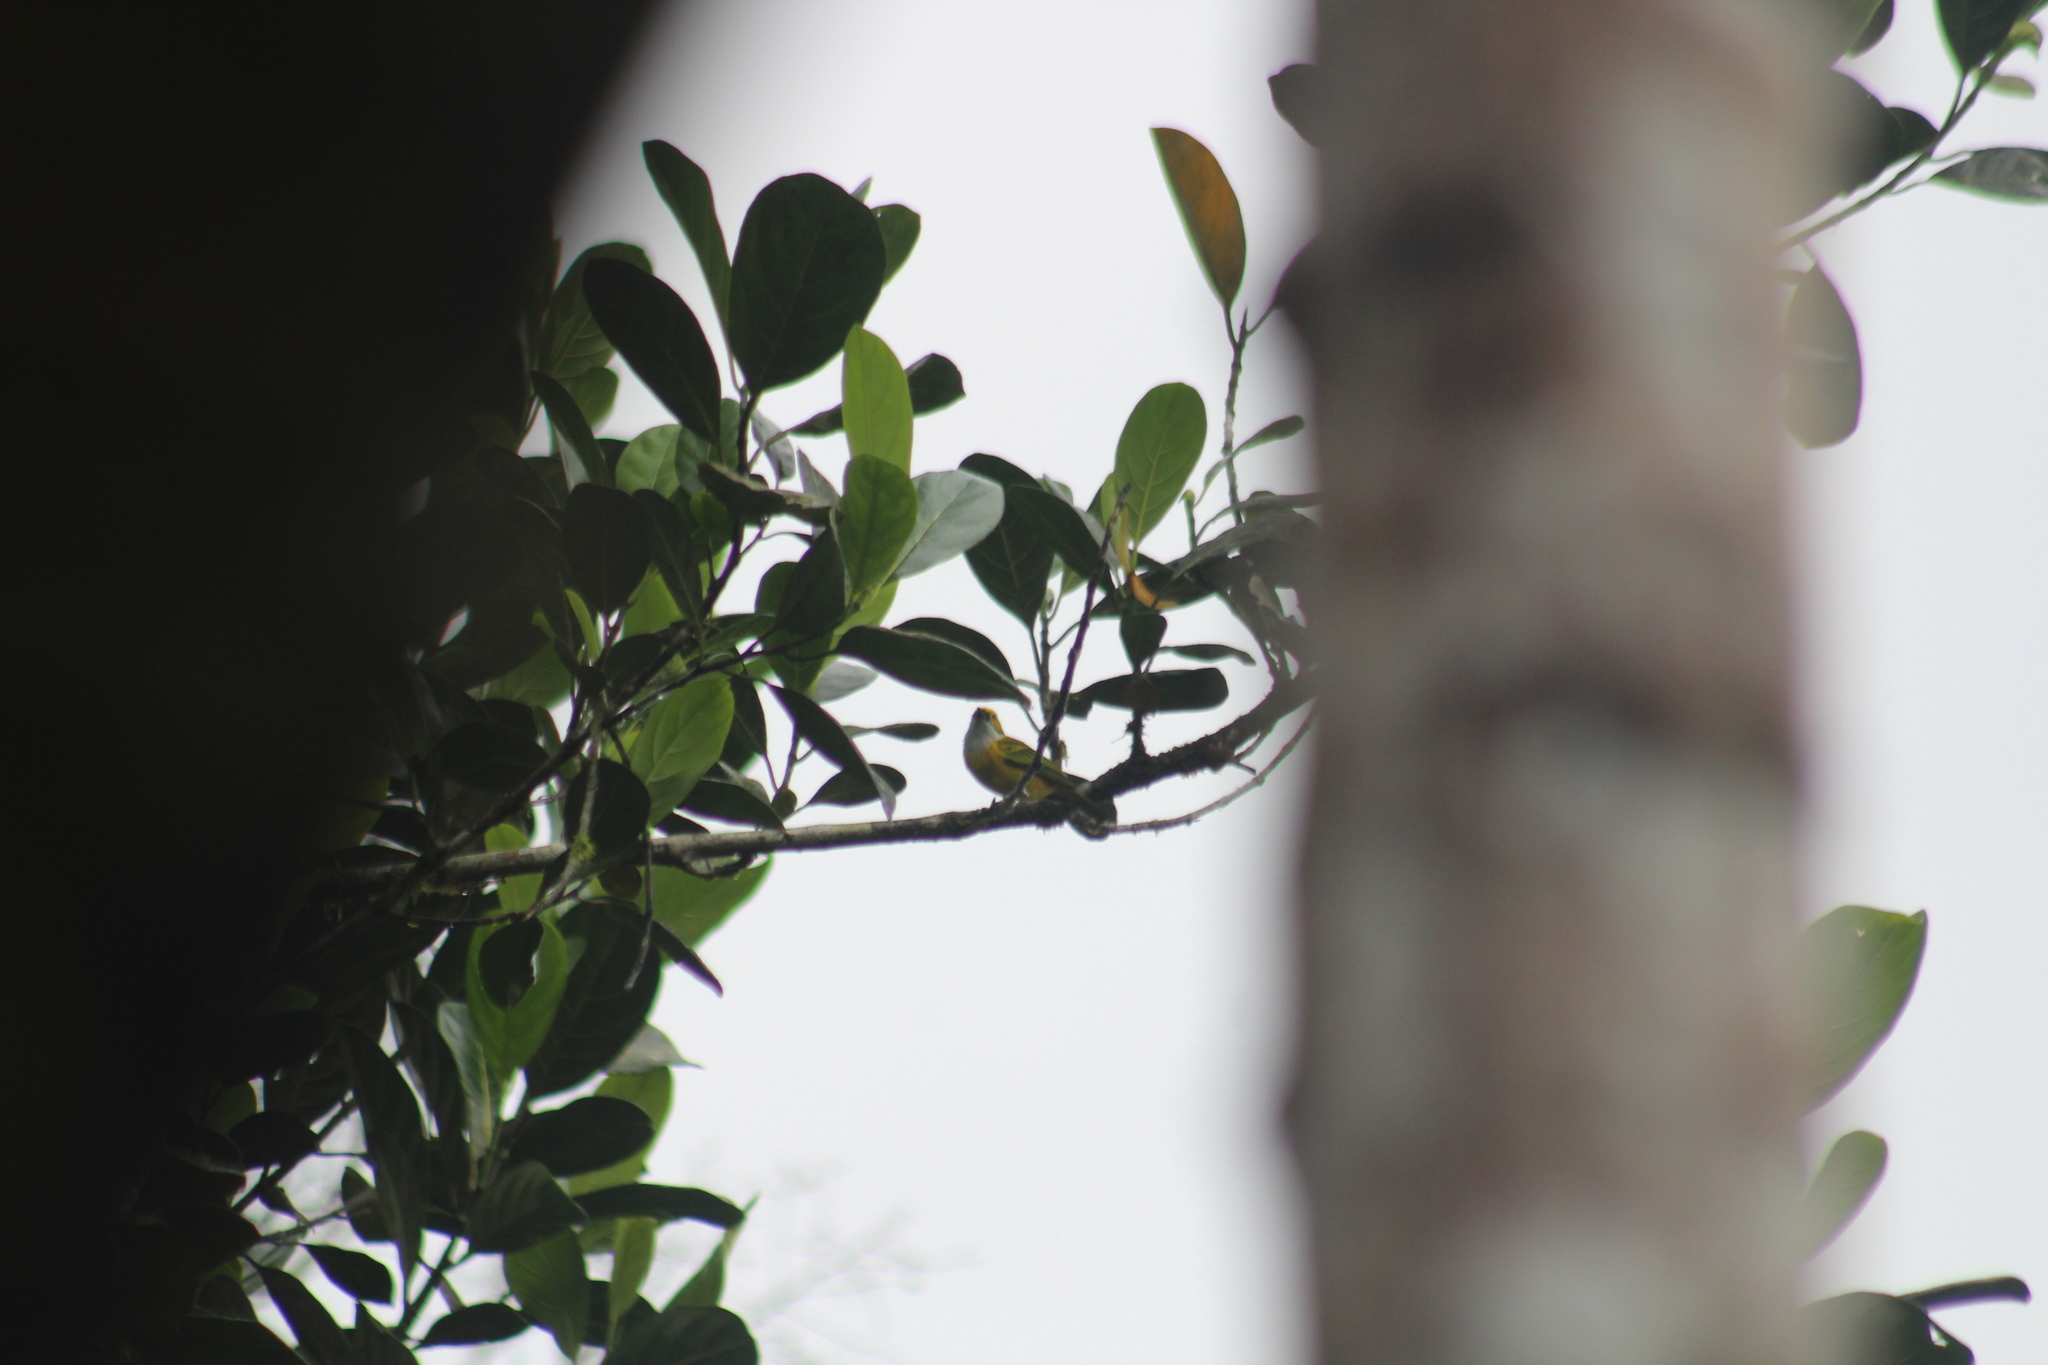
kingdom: Animalia
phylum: Chordata
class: Aves
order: Passeriformes
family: Thraupidae
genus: Tangara
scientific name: Tangara icterocephala
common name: Silver-throated tanager
